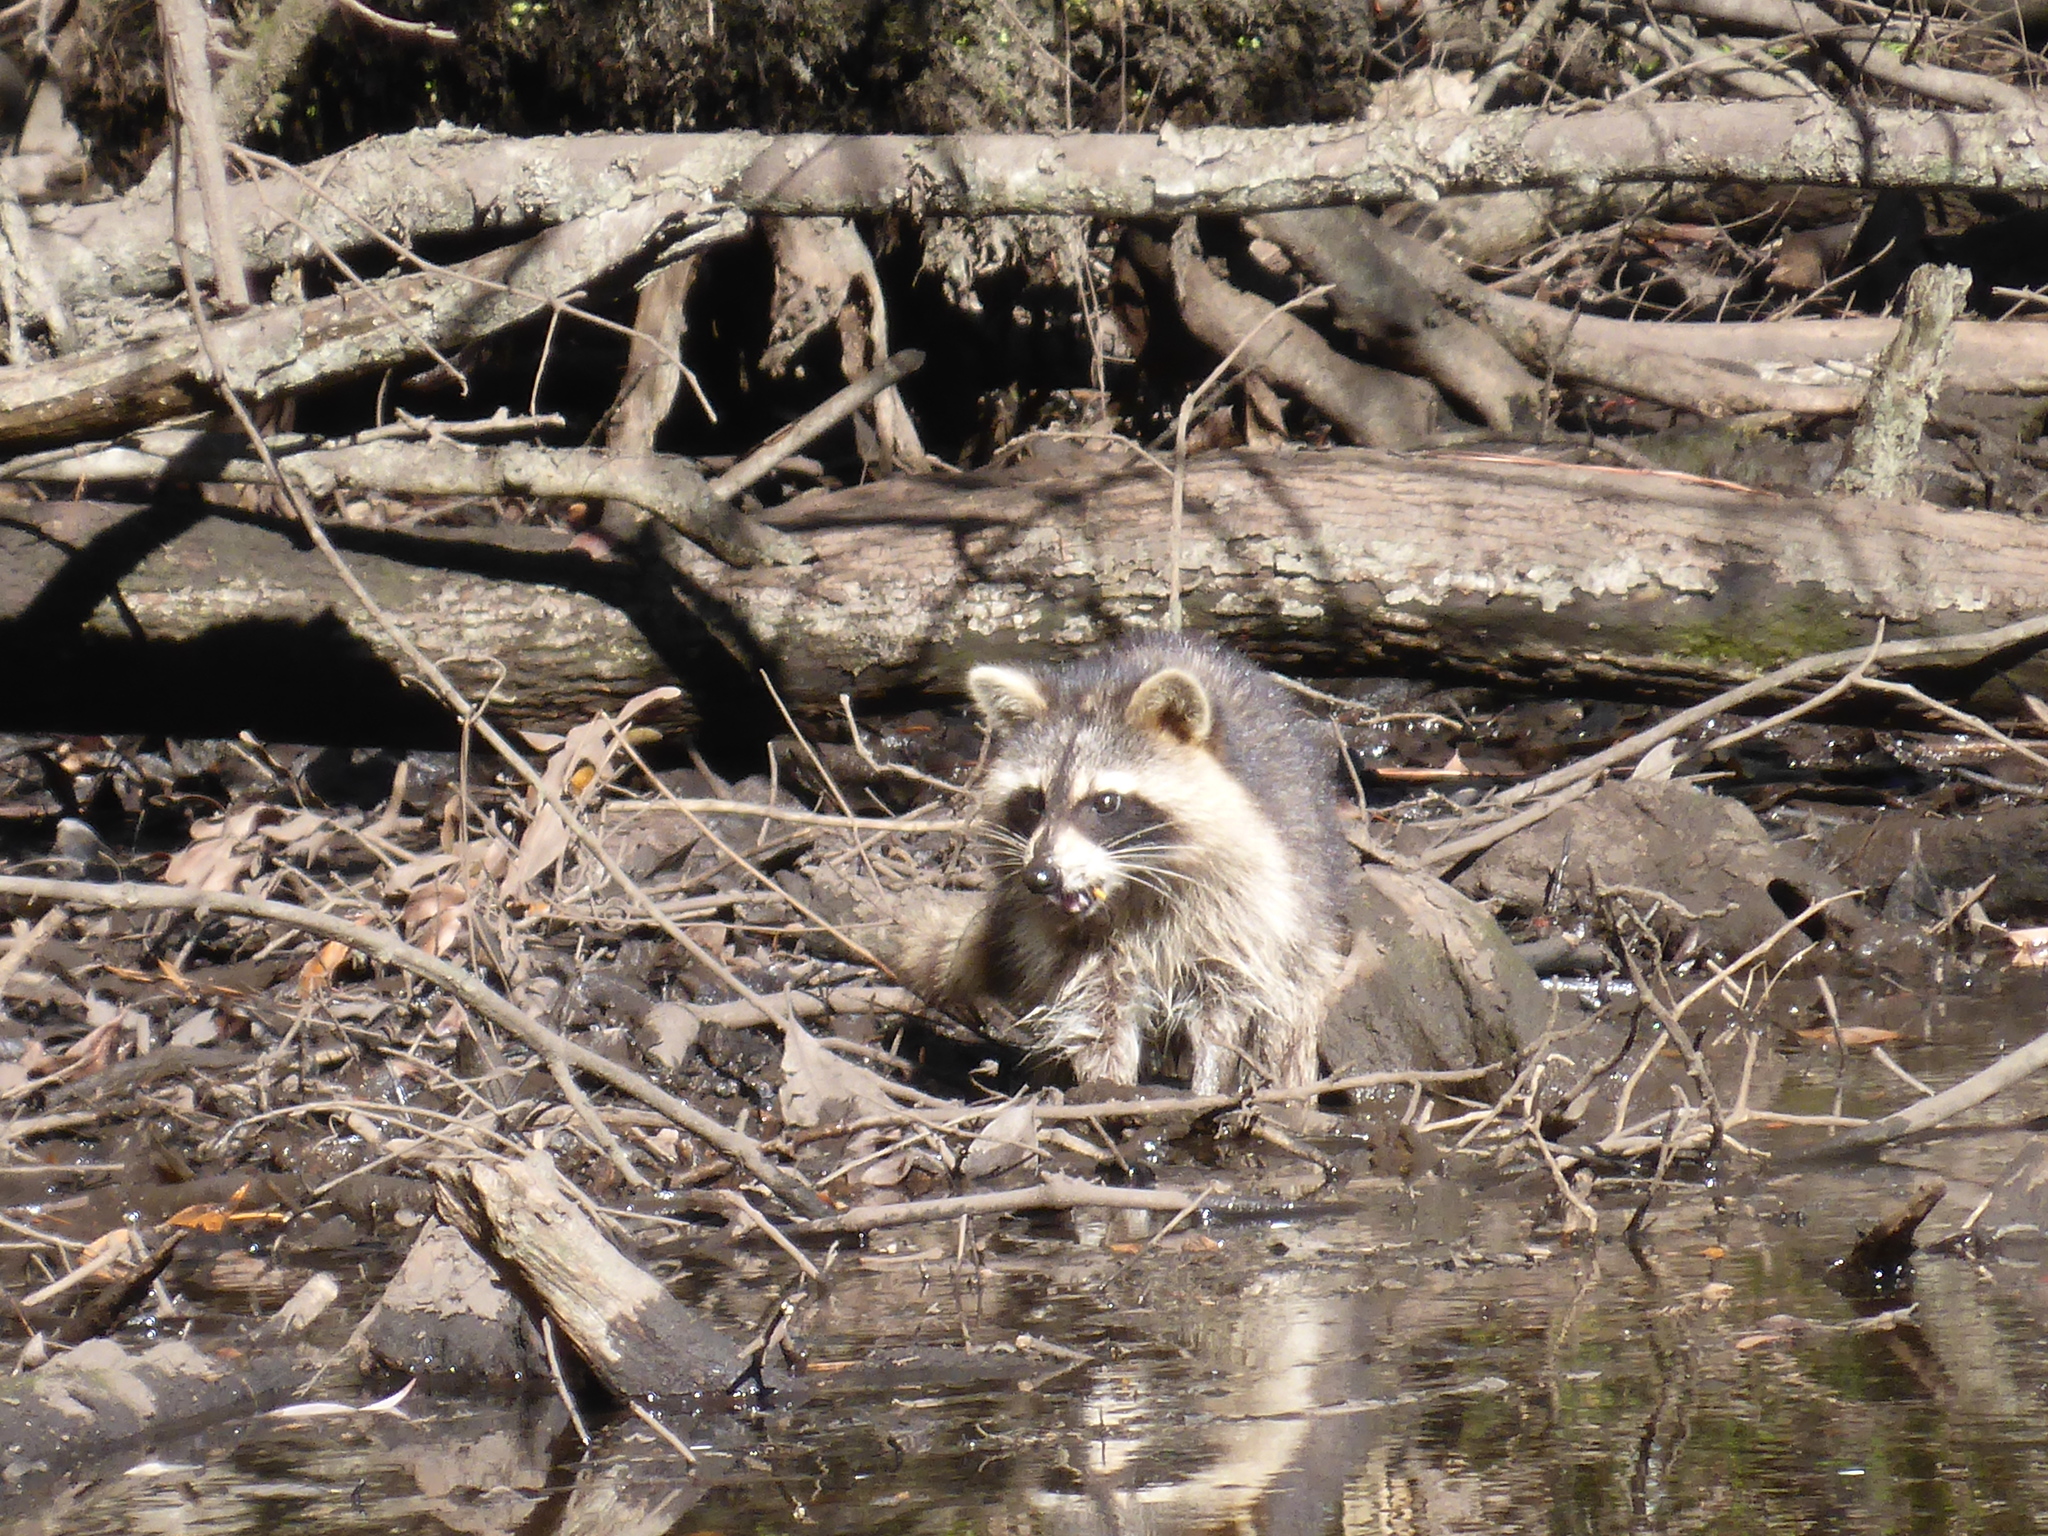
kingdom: Animalia
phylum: Chordata
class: Mammalia
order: Carnivora
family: Procyonidae
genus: Procyon
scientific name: Procyon lotor
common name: Raccoon
